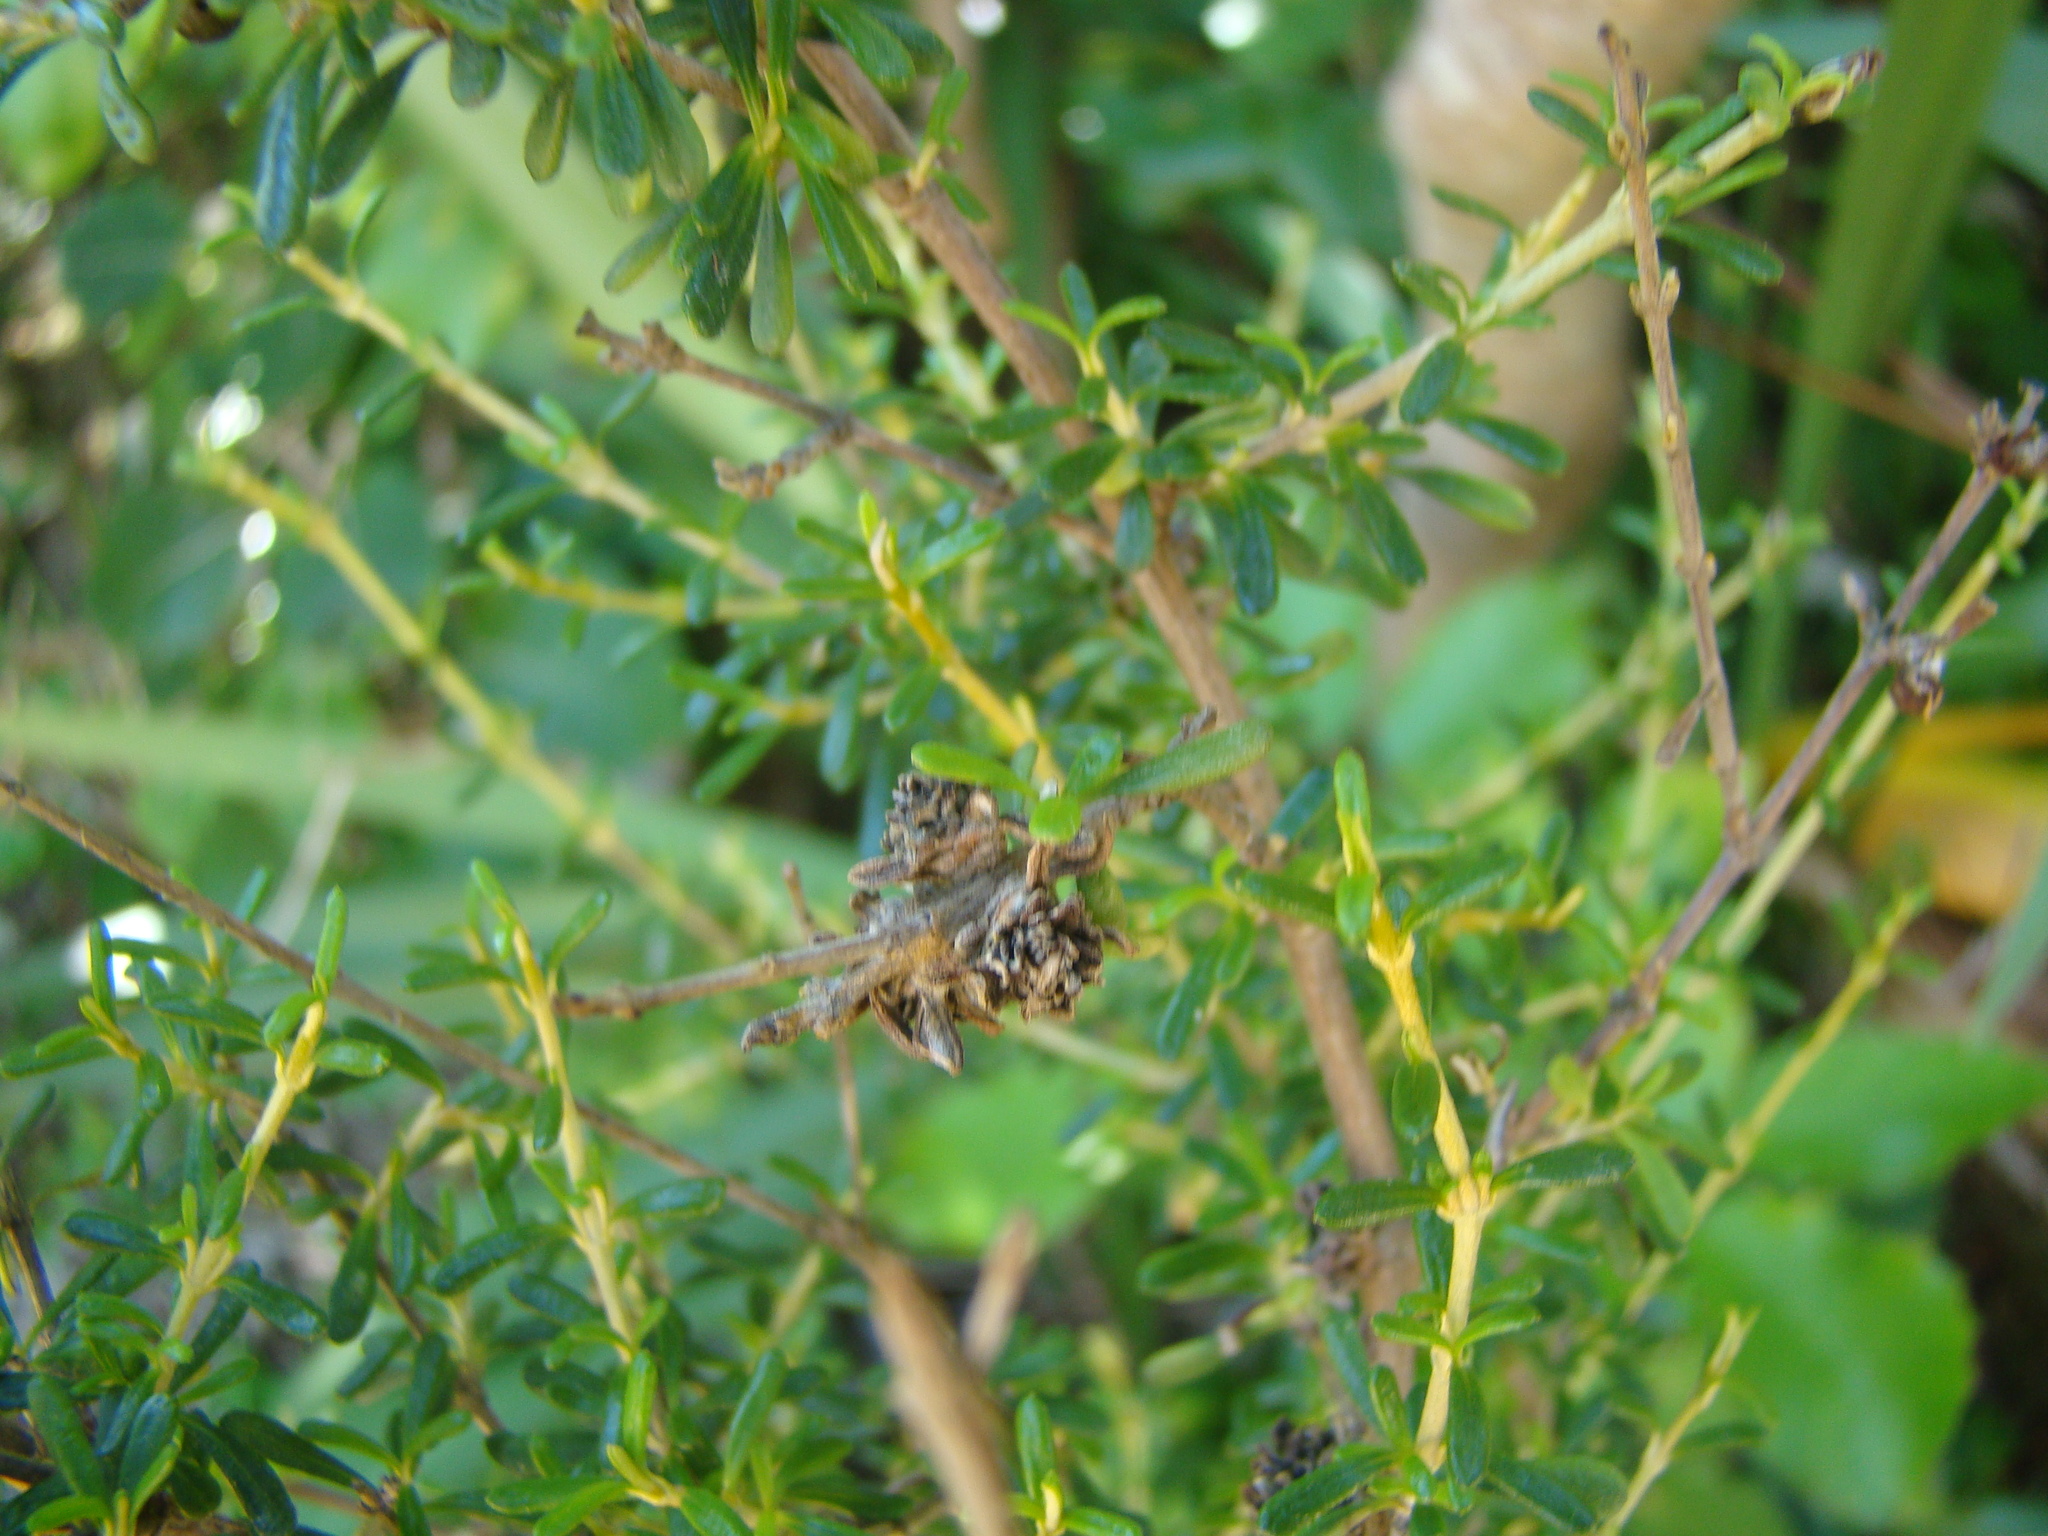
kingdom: Plantae
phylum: Tracheophyta
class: Magnoliopsida
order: Asterales
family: Asteraceae
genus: Olearia
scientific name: Olearia solandri
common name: Coastal daisybush
